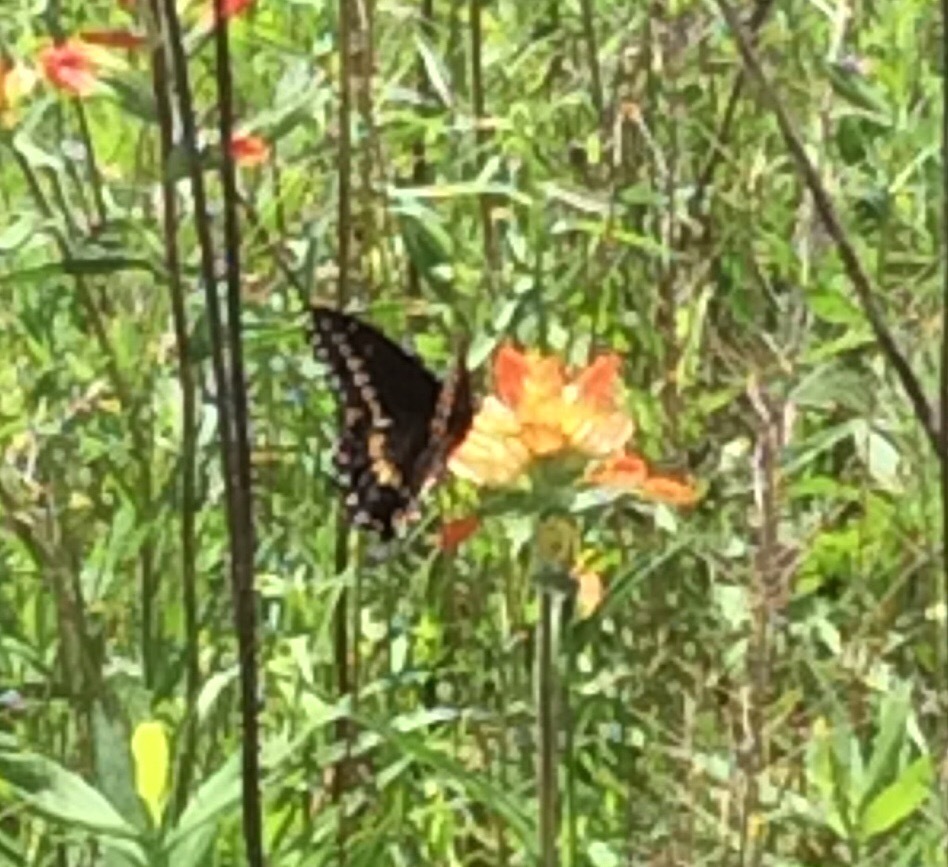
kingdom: Animalia
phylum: Arthropoda
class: Insecta
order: Lepidoptera
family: Papilionidae
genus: Papilio
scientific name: Papilio polyxenes
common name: Black swallowtail
